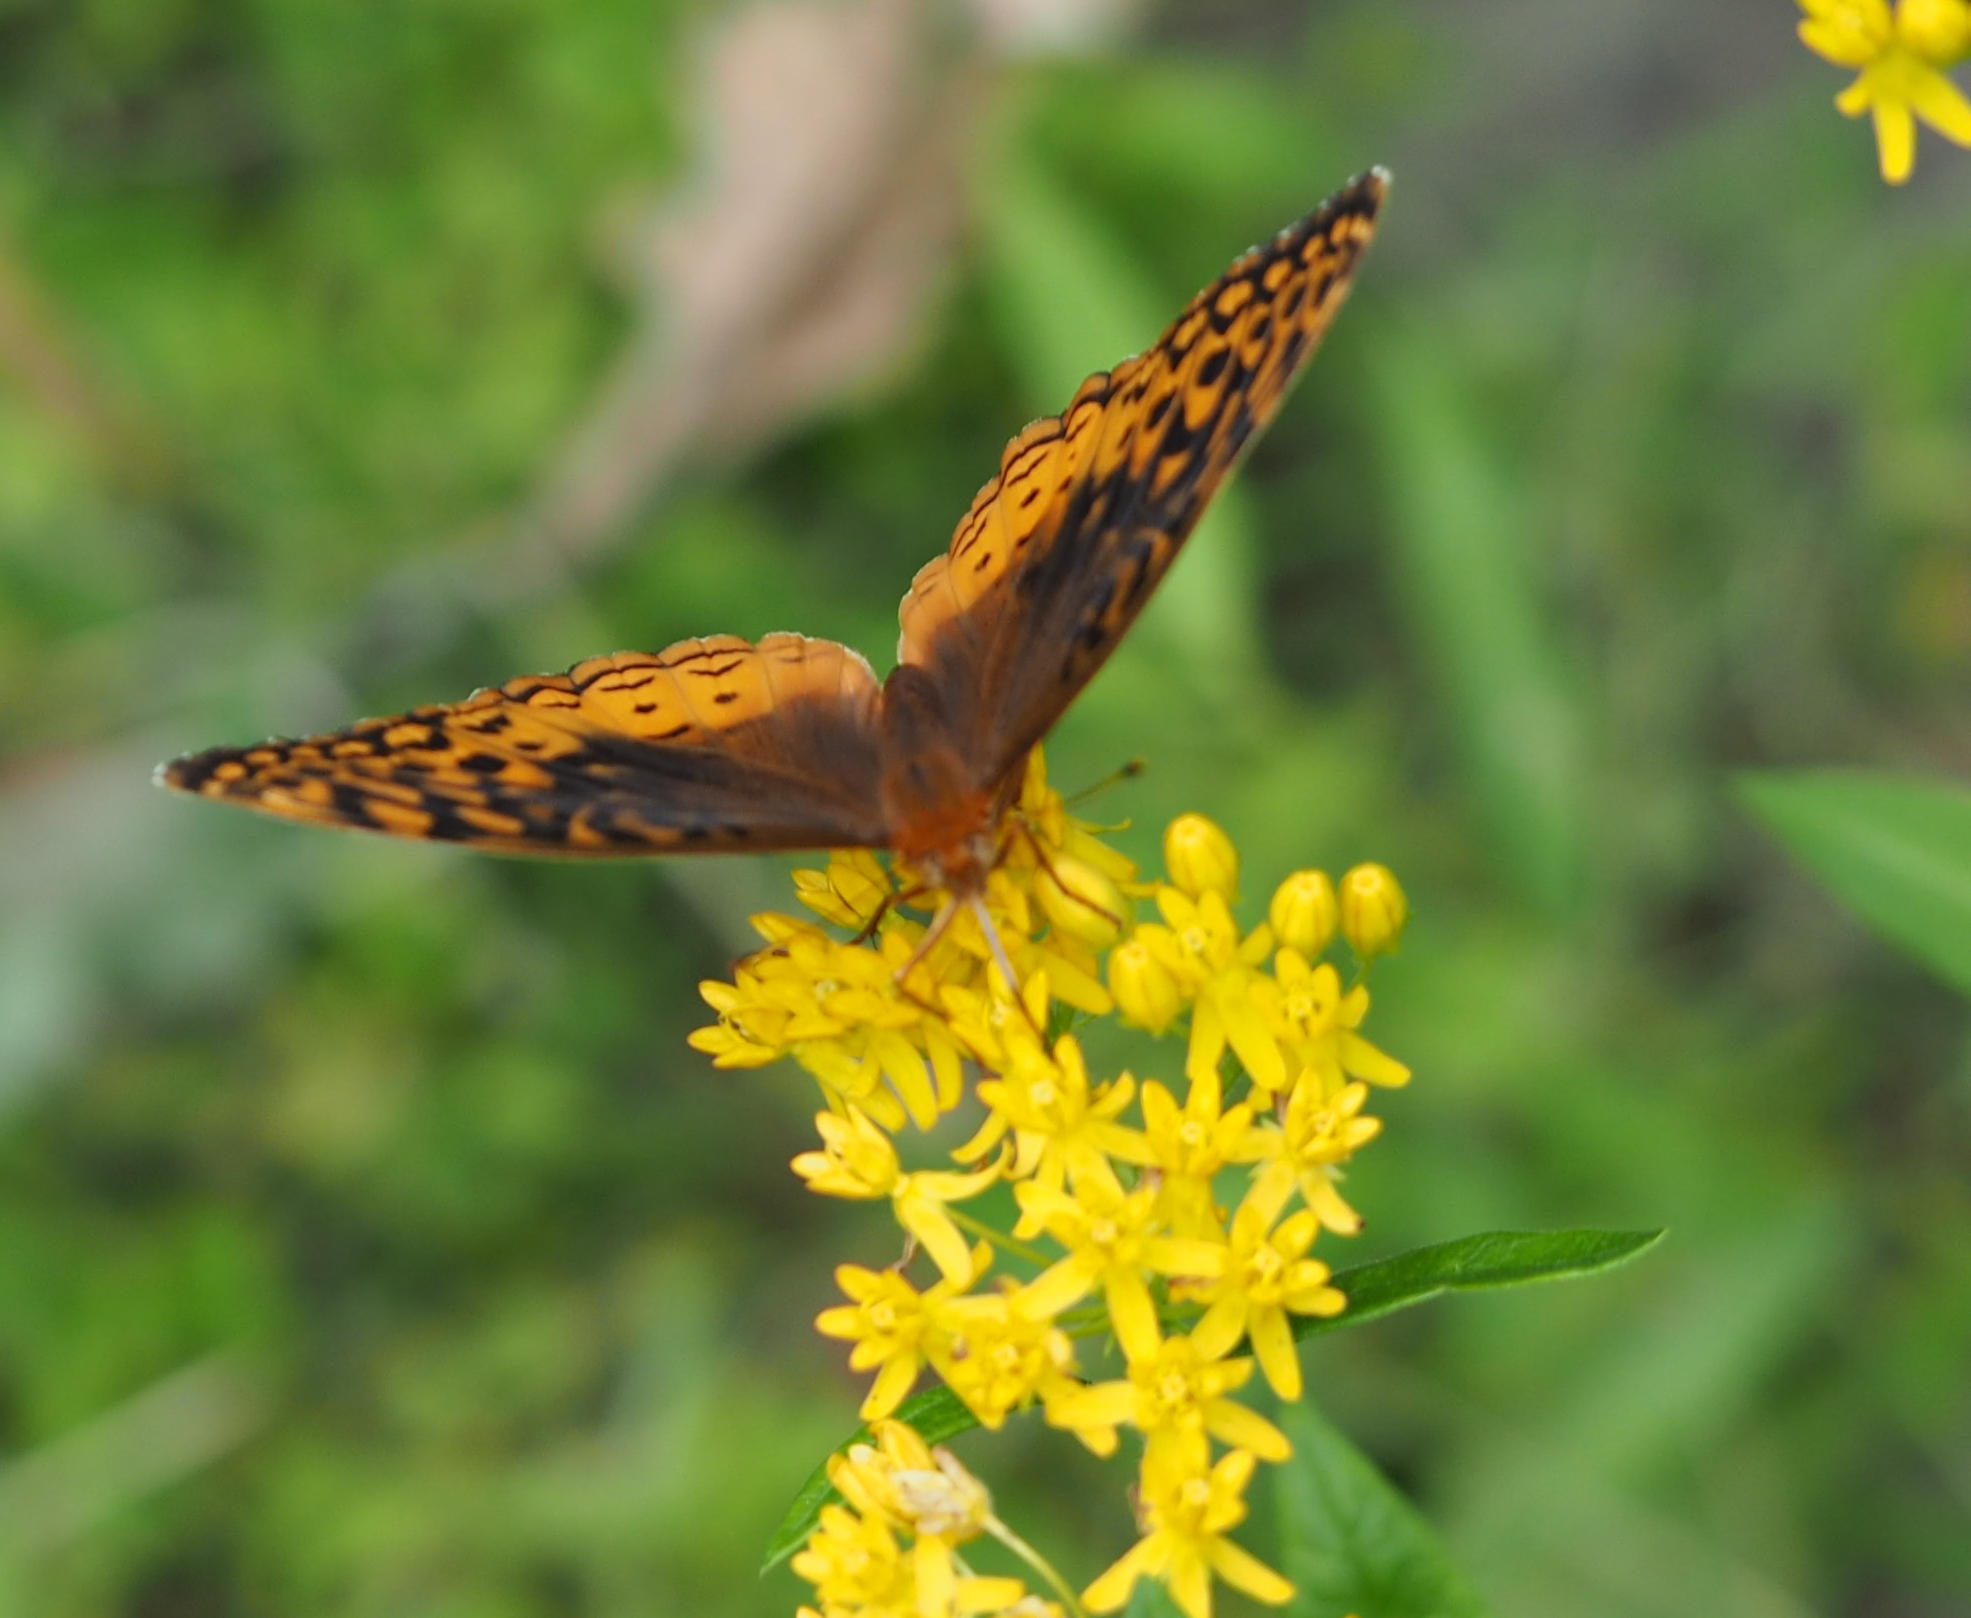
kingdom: Animalia
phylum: Arthropoda
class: Insecta
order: Lepidoptera
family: Nymphalidae
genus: Speyeria
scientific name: Speyeria cybele
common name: Great spangled fritillary
